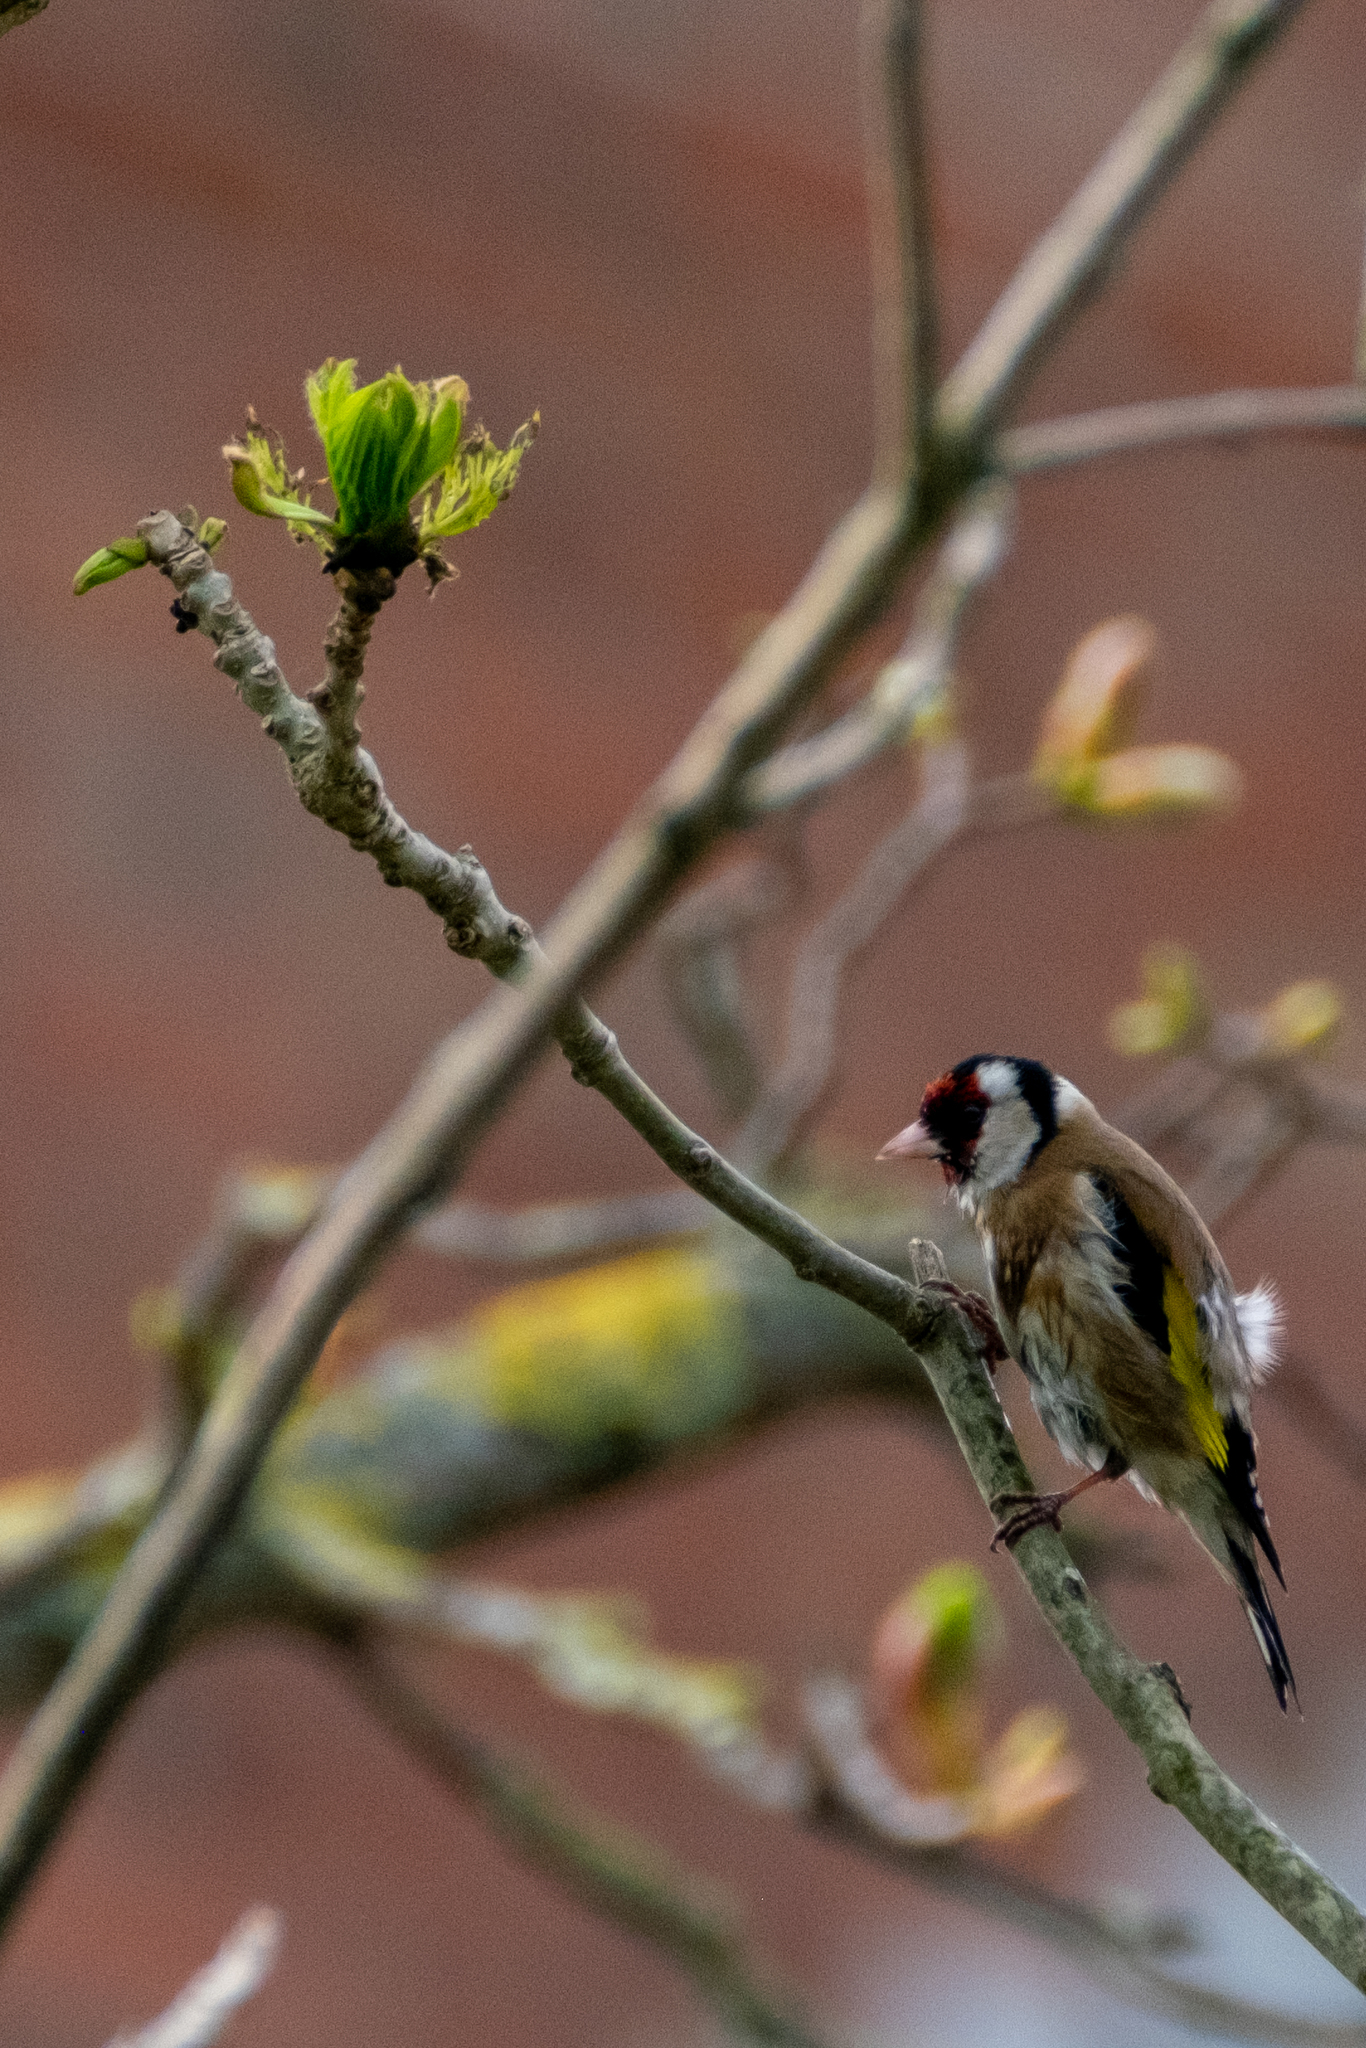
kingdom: Animalia
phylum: Chordata
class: Aves
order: Passeriformes
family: Fringillidae
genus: Carduelis
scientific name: Carduelis carduelis
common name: European goldfinch
